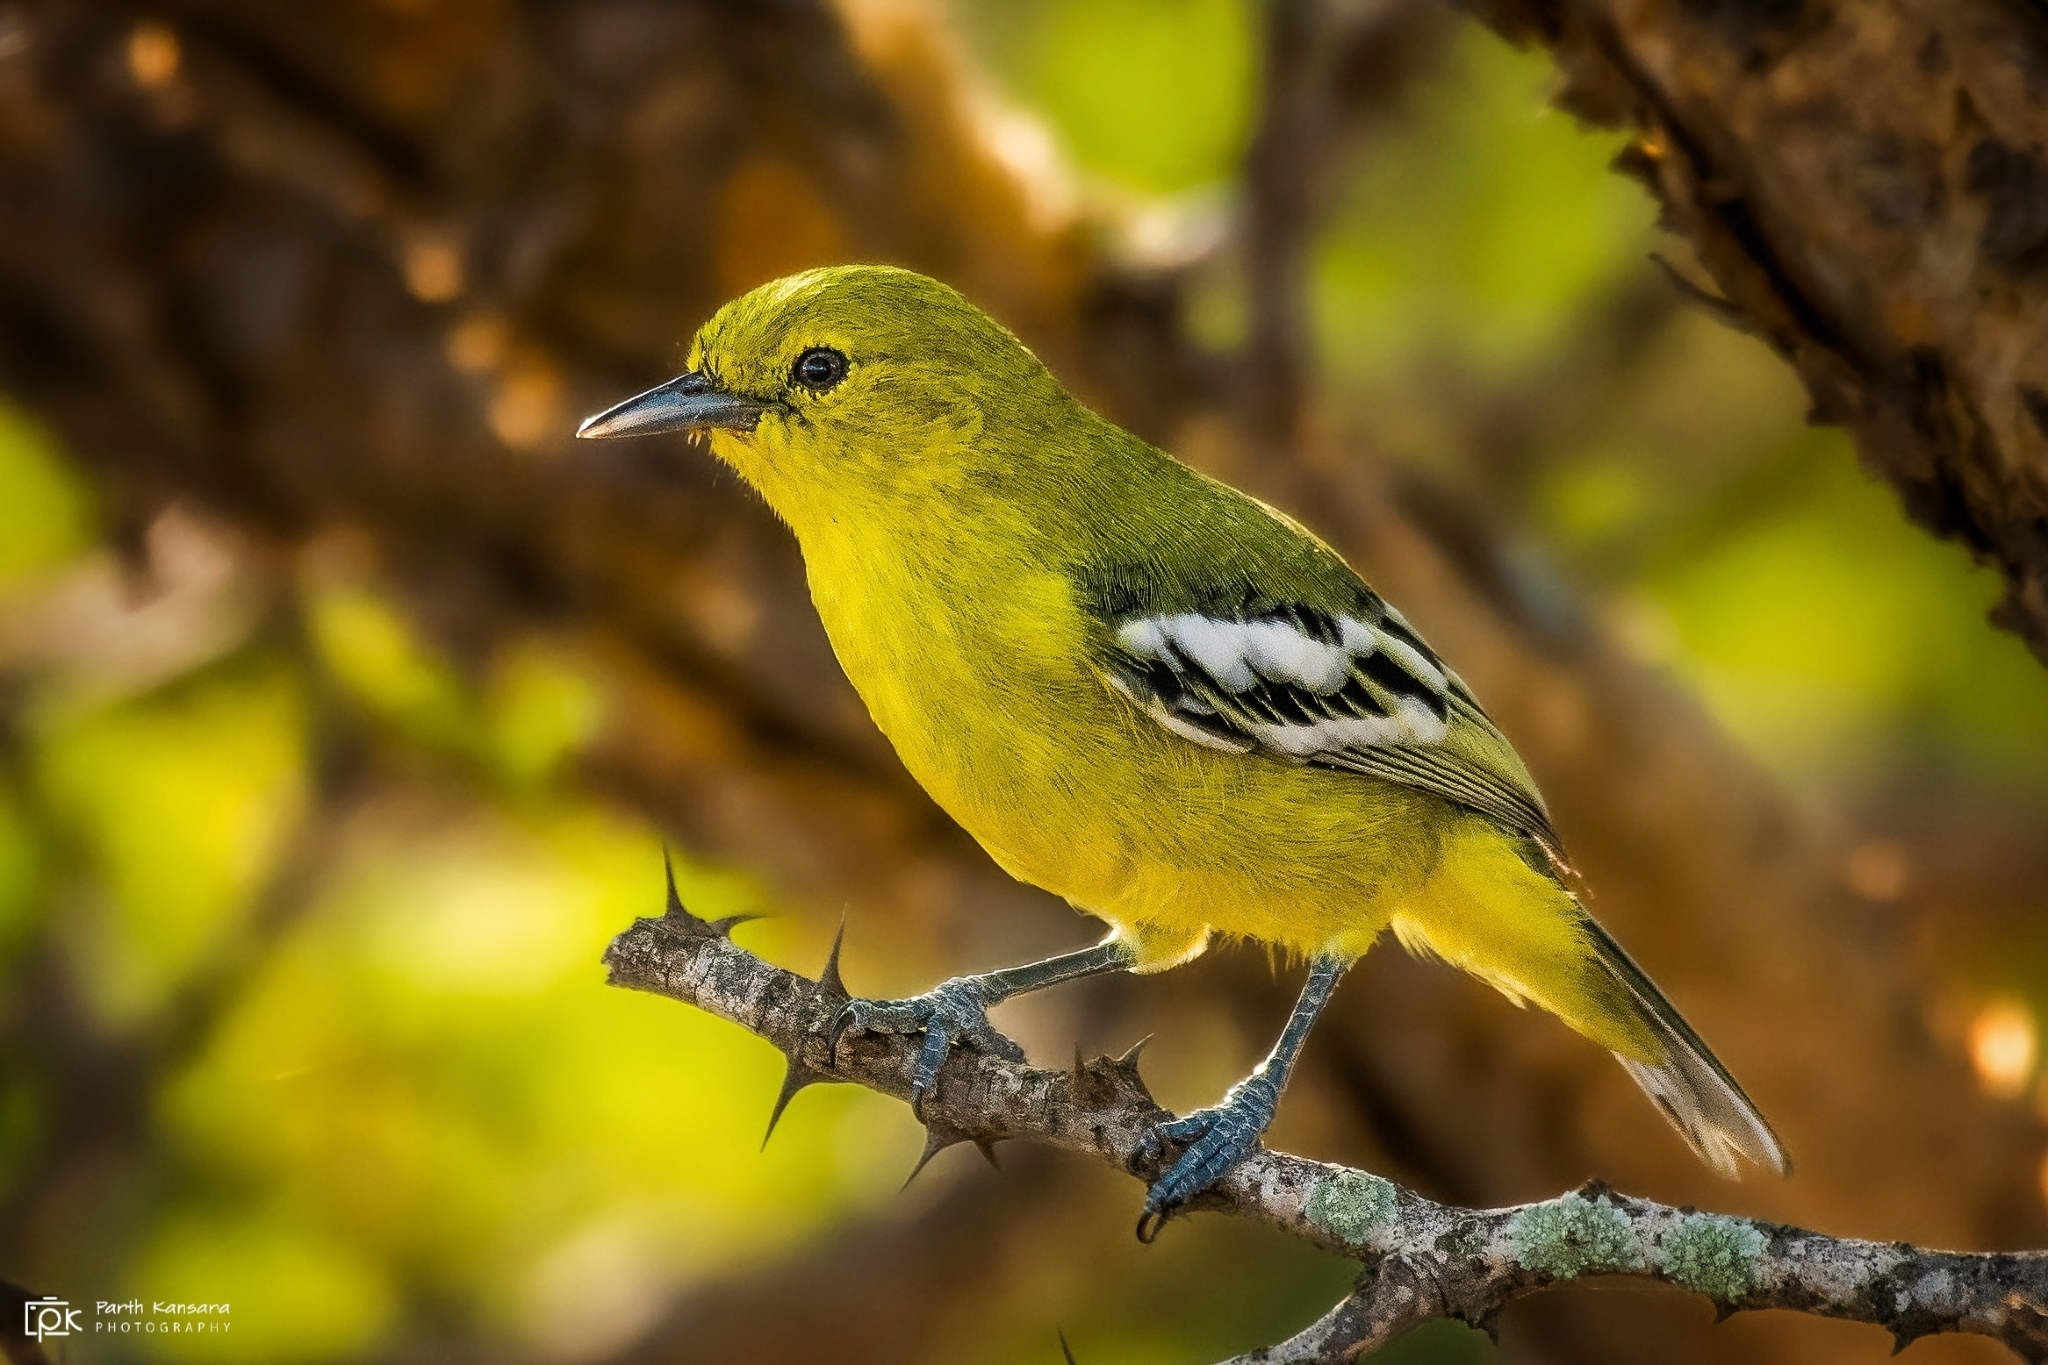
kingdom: Animalia
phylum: Chordata
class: Aves
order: Passeriformes
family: Aegithinidae
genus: Aegithina
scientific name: Aegithina nigrolutea
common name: Marshall's iora
